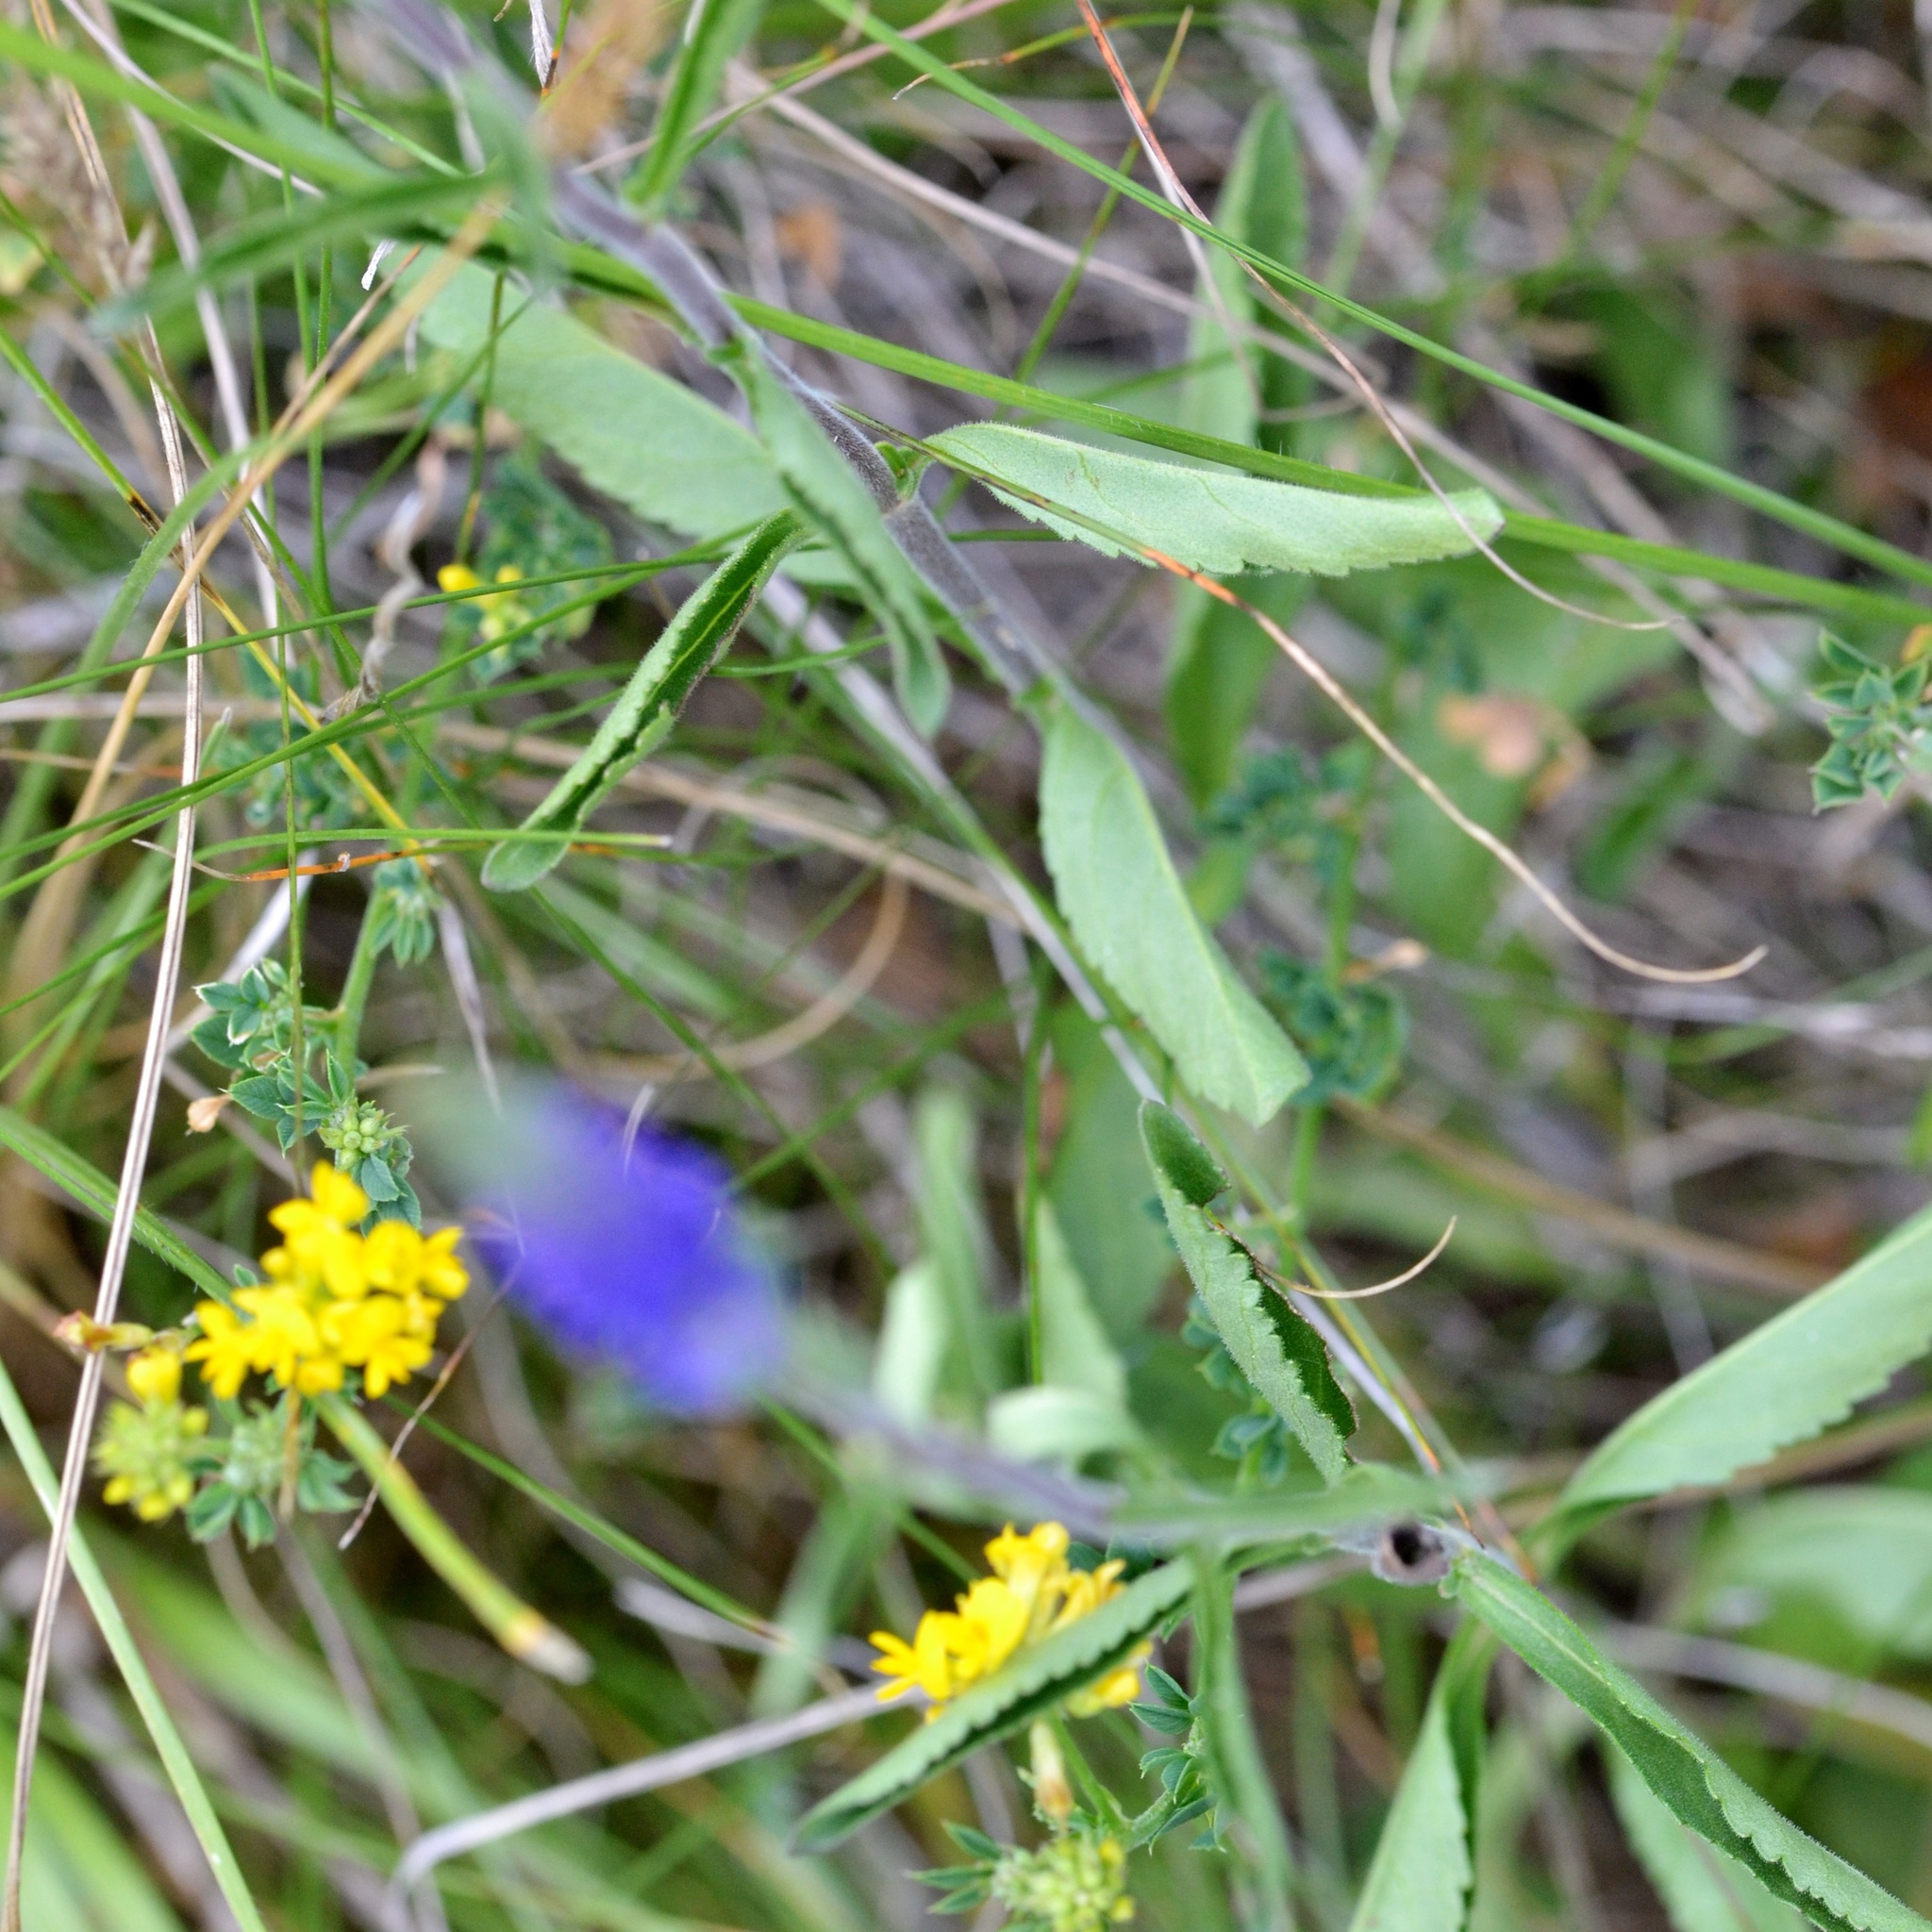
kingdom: Plantae
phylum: Tracheophyta
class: Magnoliopsida
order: Lamiales
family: Plantaginaceae
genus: Veronica
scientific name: Veronica spicata
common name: Spiked speedwell
